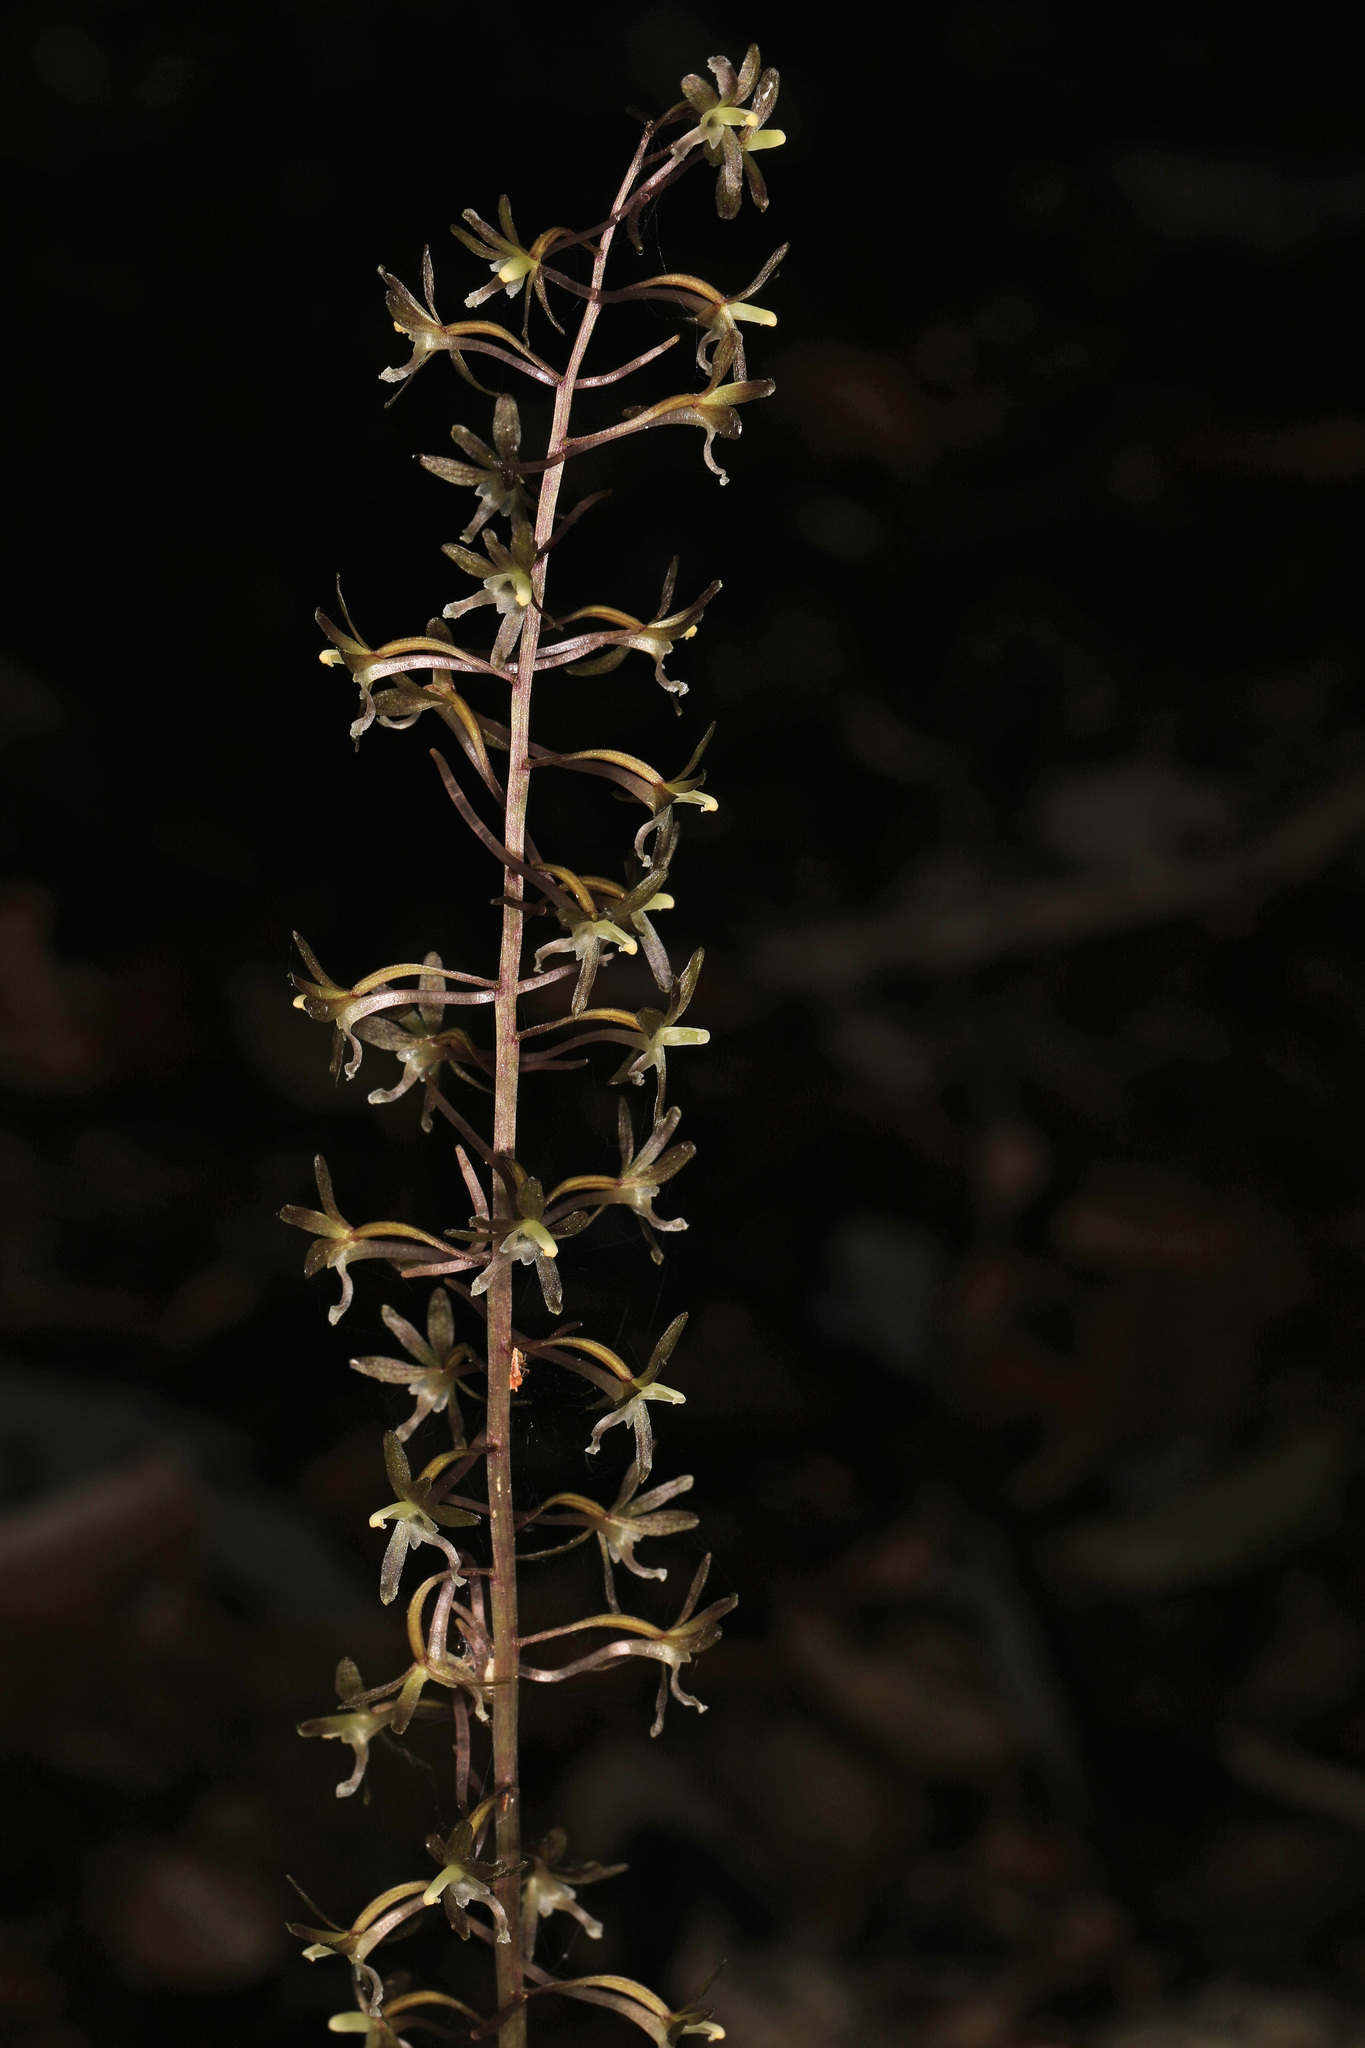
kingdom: Plantae
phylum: Tracheophyta
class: Liliopsida
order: Asparagales
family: Orchidaceae
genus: Tipularia
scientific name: Tipularia discolor
